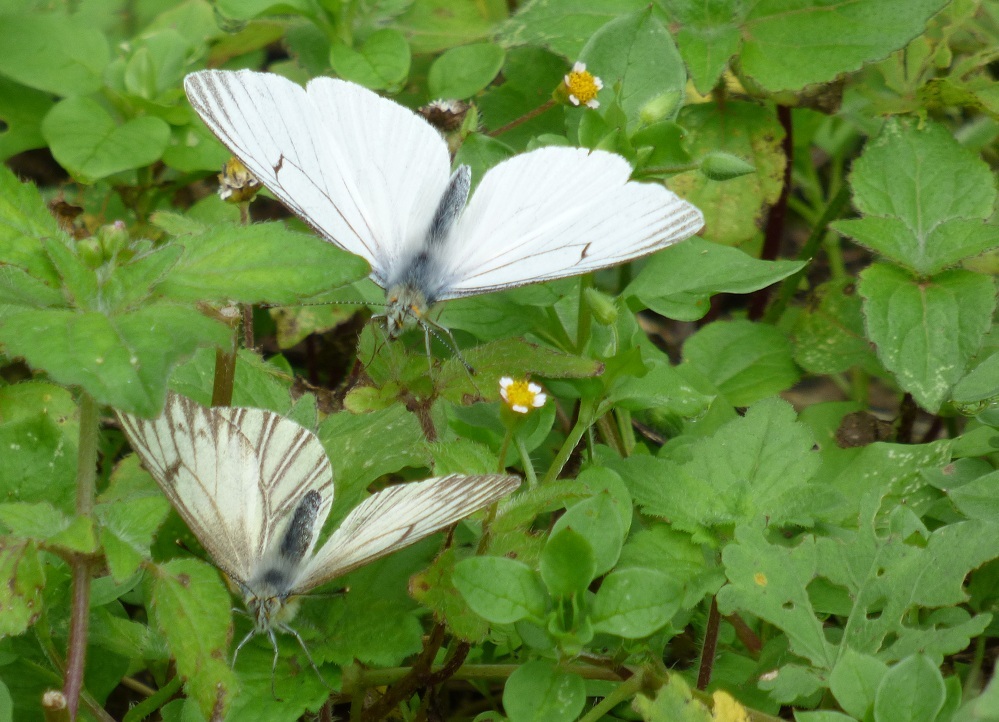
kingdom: Animalia
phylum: Arthropoda
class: Insecta
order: Lepidoptera
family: Pieridae
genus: Tatochila
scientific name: Tatochila orthodice
